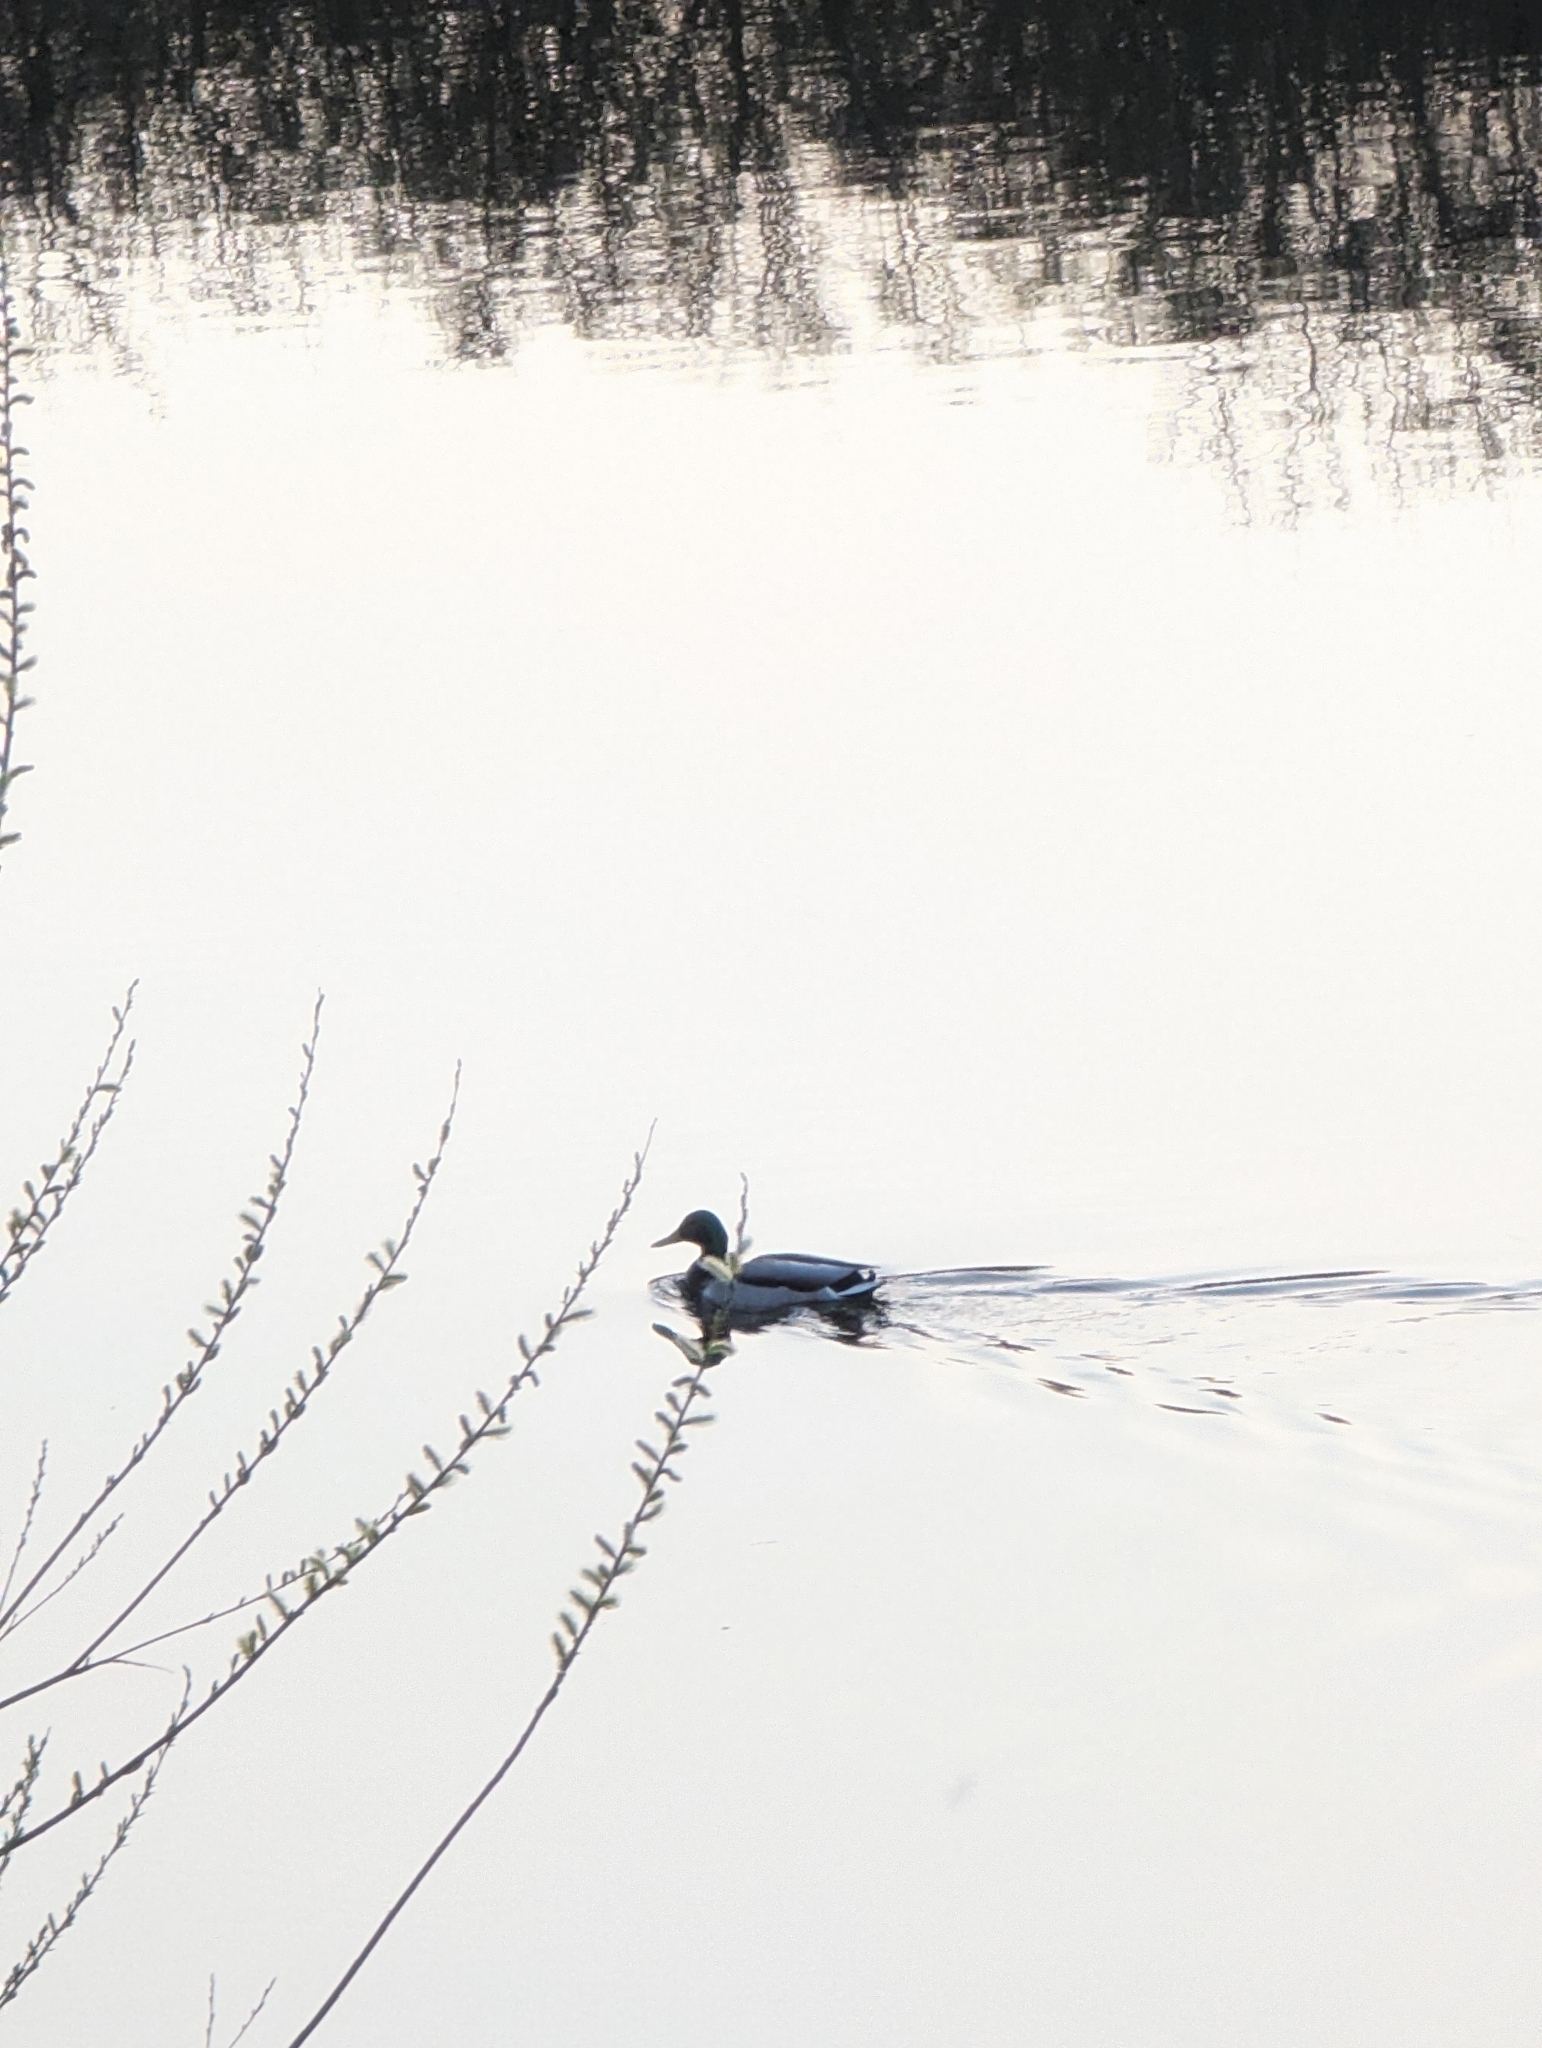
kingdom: Animalia
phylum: Chordata
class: Aves
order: Anseriformes
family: Anatidae
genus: Anas
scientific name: Anas platyrhynchos
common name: Mallard
